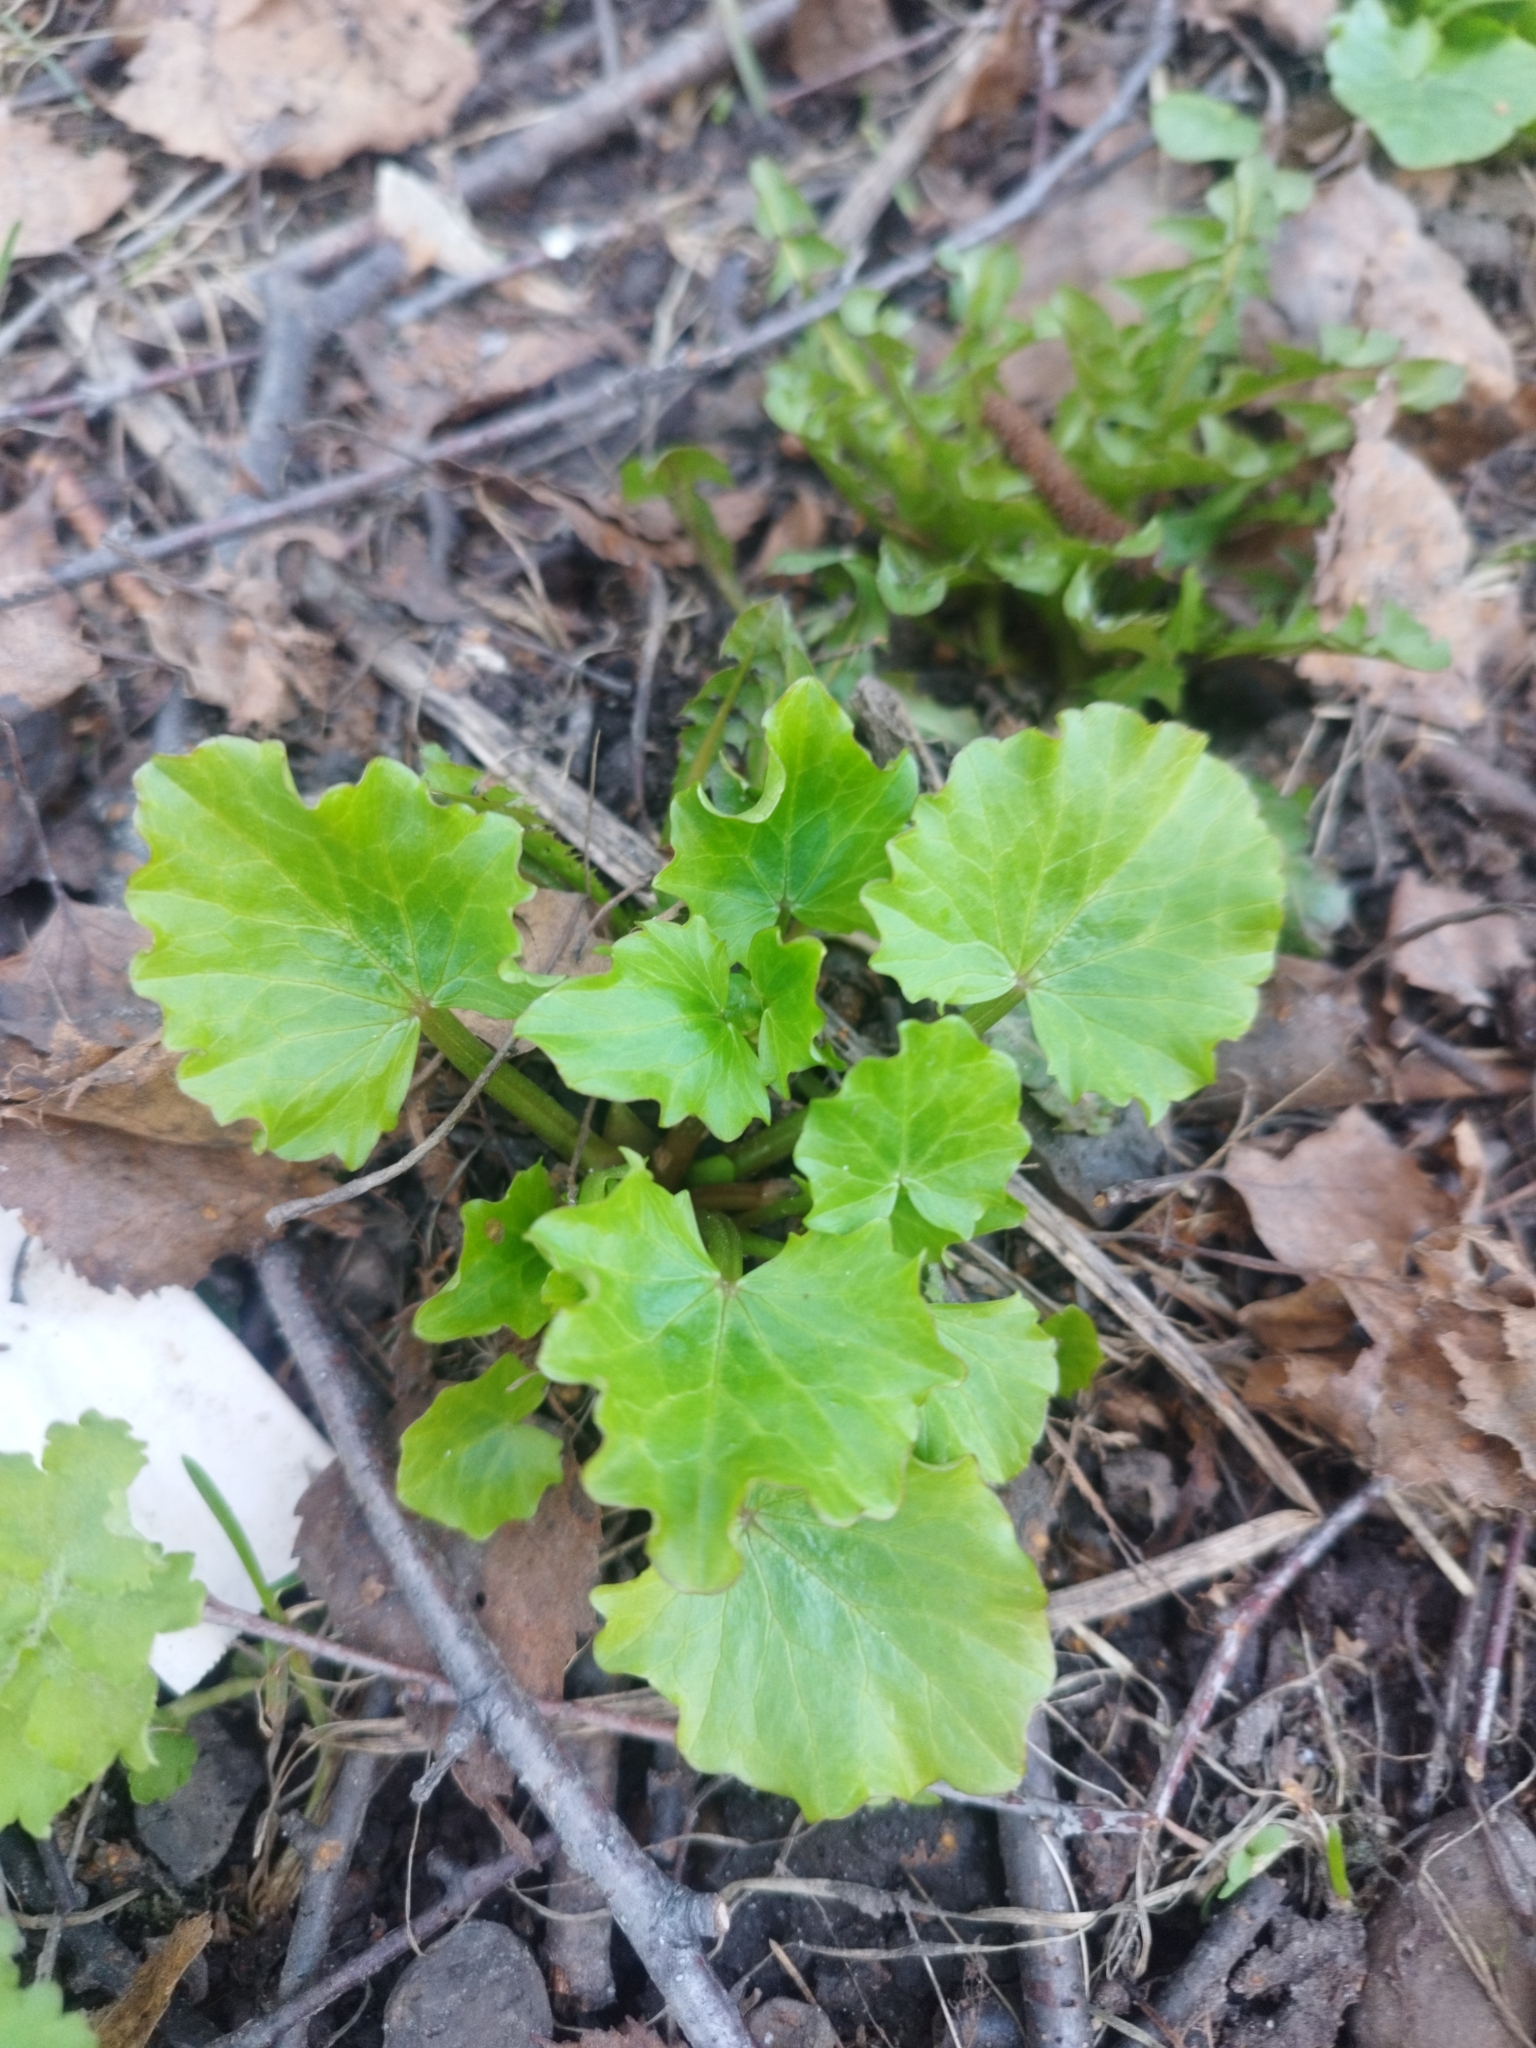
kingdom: Plantae
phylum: Tracheophyta
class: Magnoliopsida
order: Ranunculales
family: Ranunculaceae
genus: Ficaria
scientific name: Ficaria verna
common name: Lesser celandine
